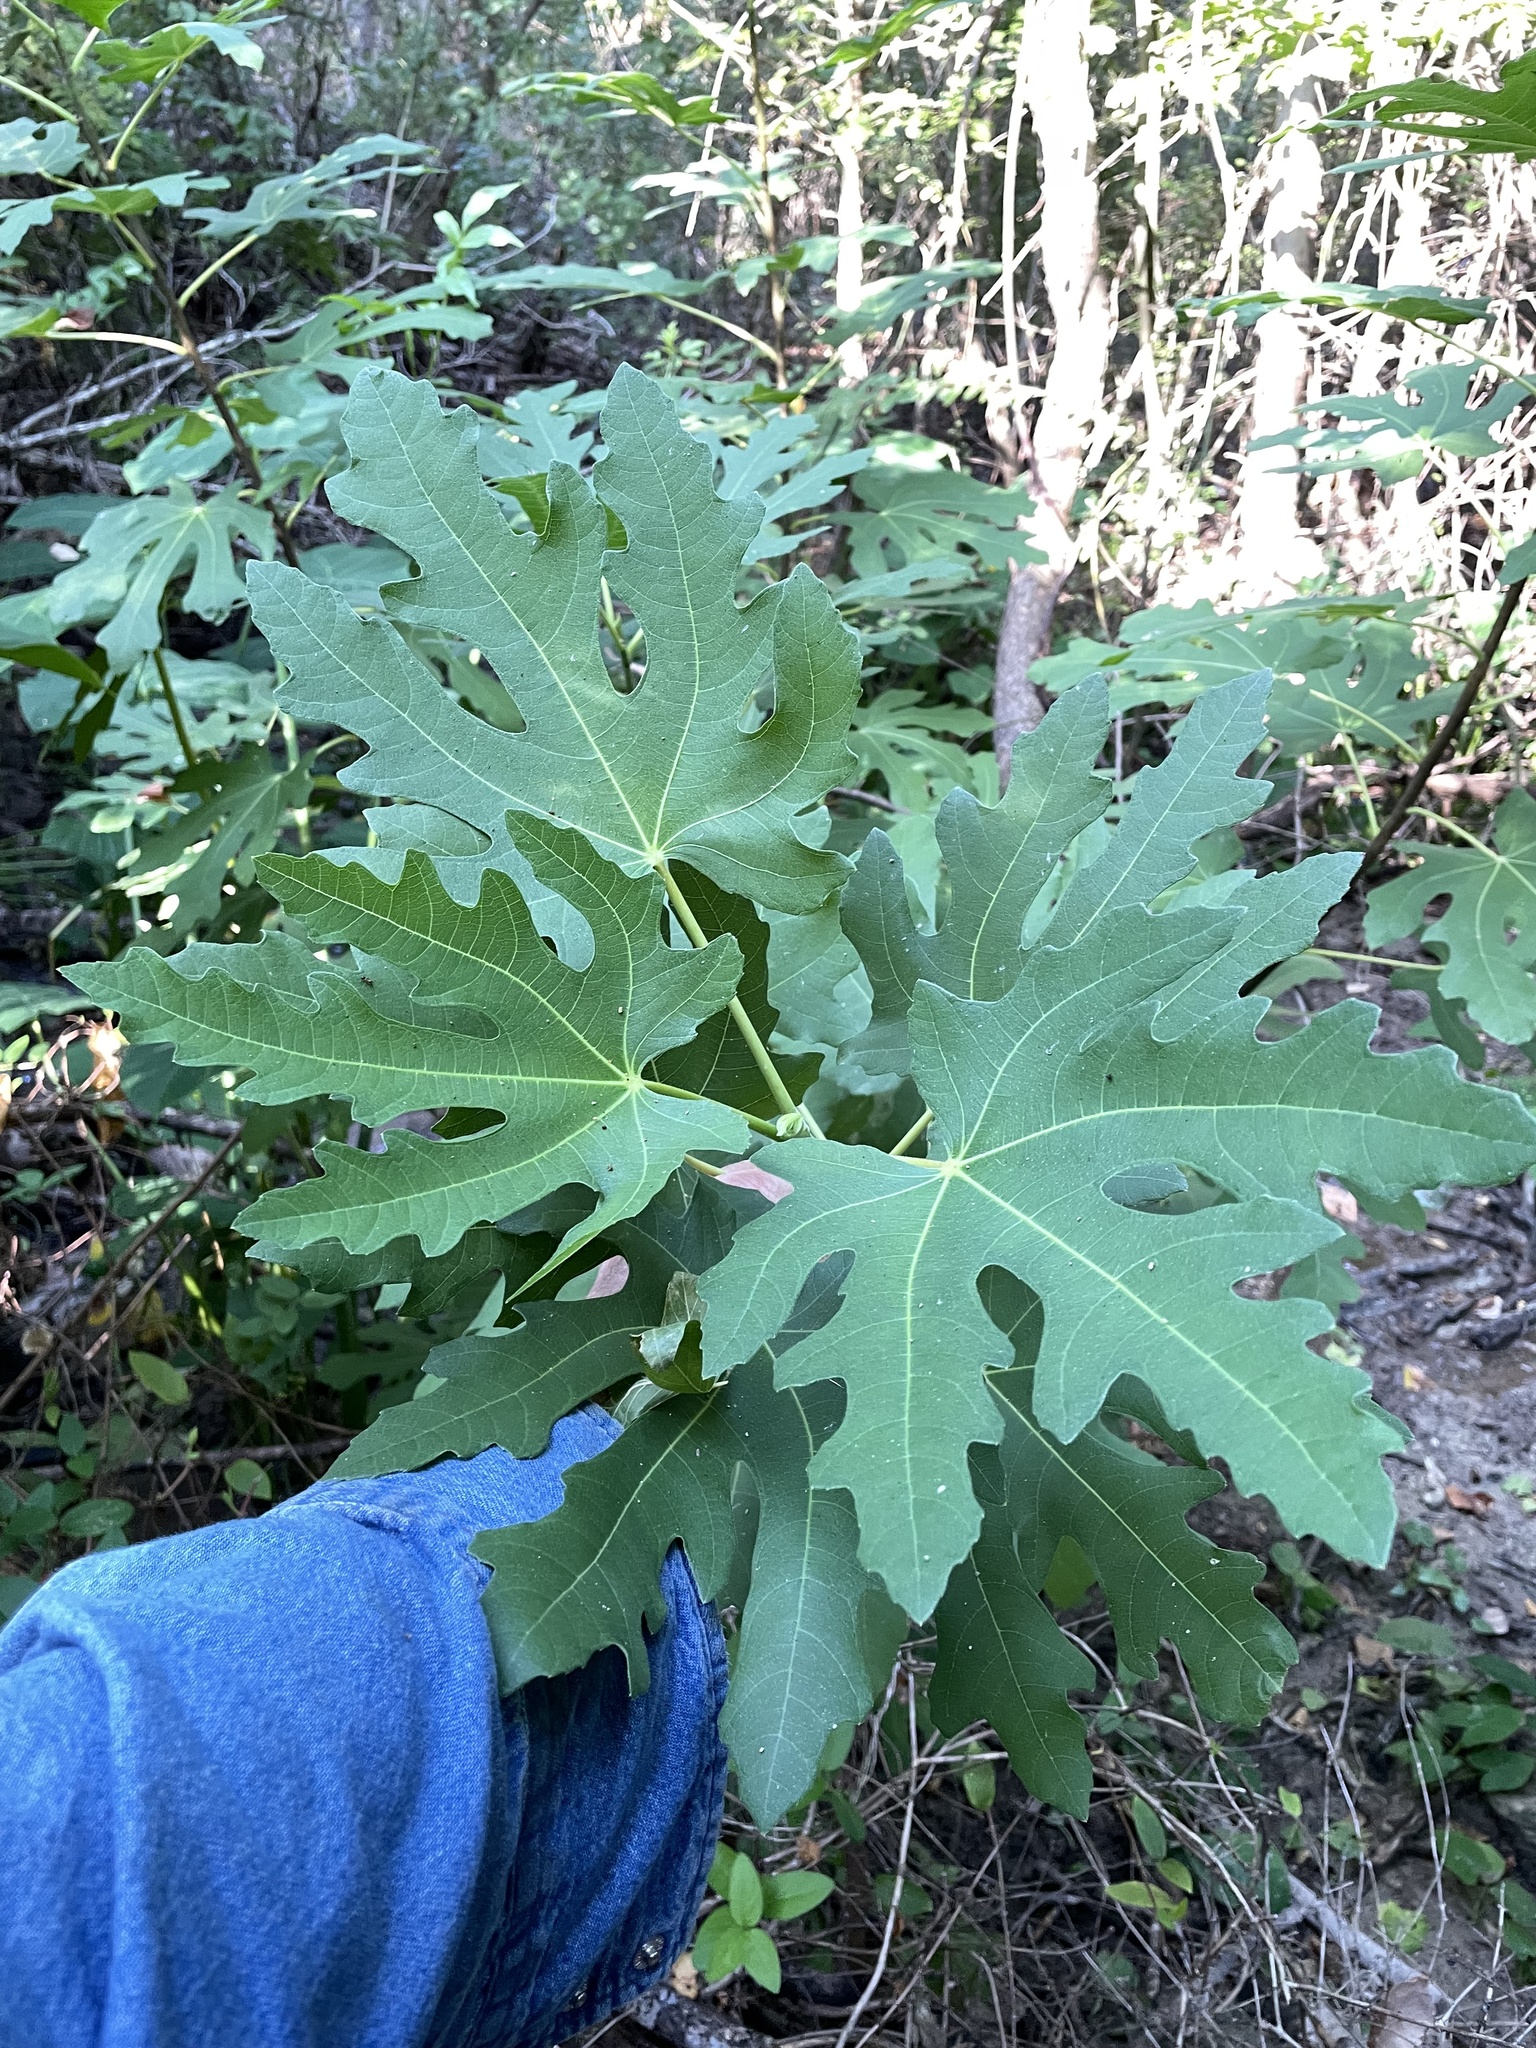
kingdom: Plantae
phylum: Tracheophyta
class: Magnoliopsida
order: Rosales
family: Moraceae
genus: Ficus
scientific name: Ficus carica
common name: Fig
